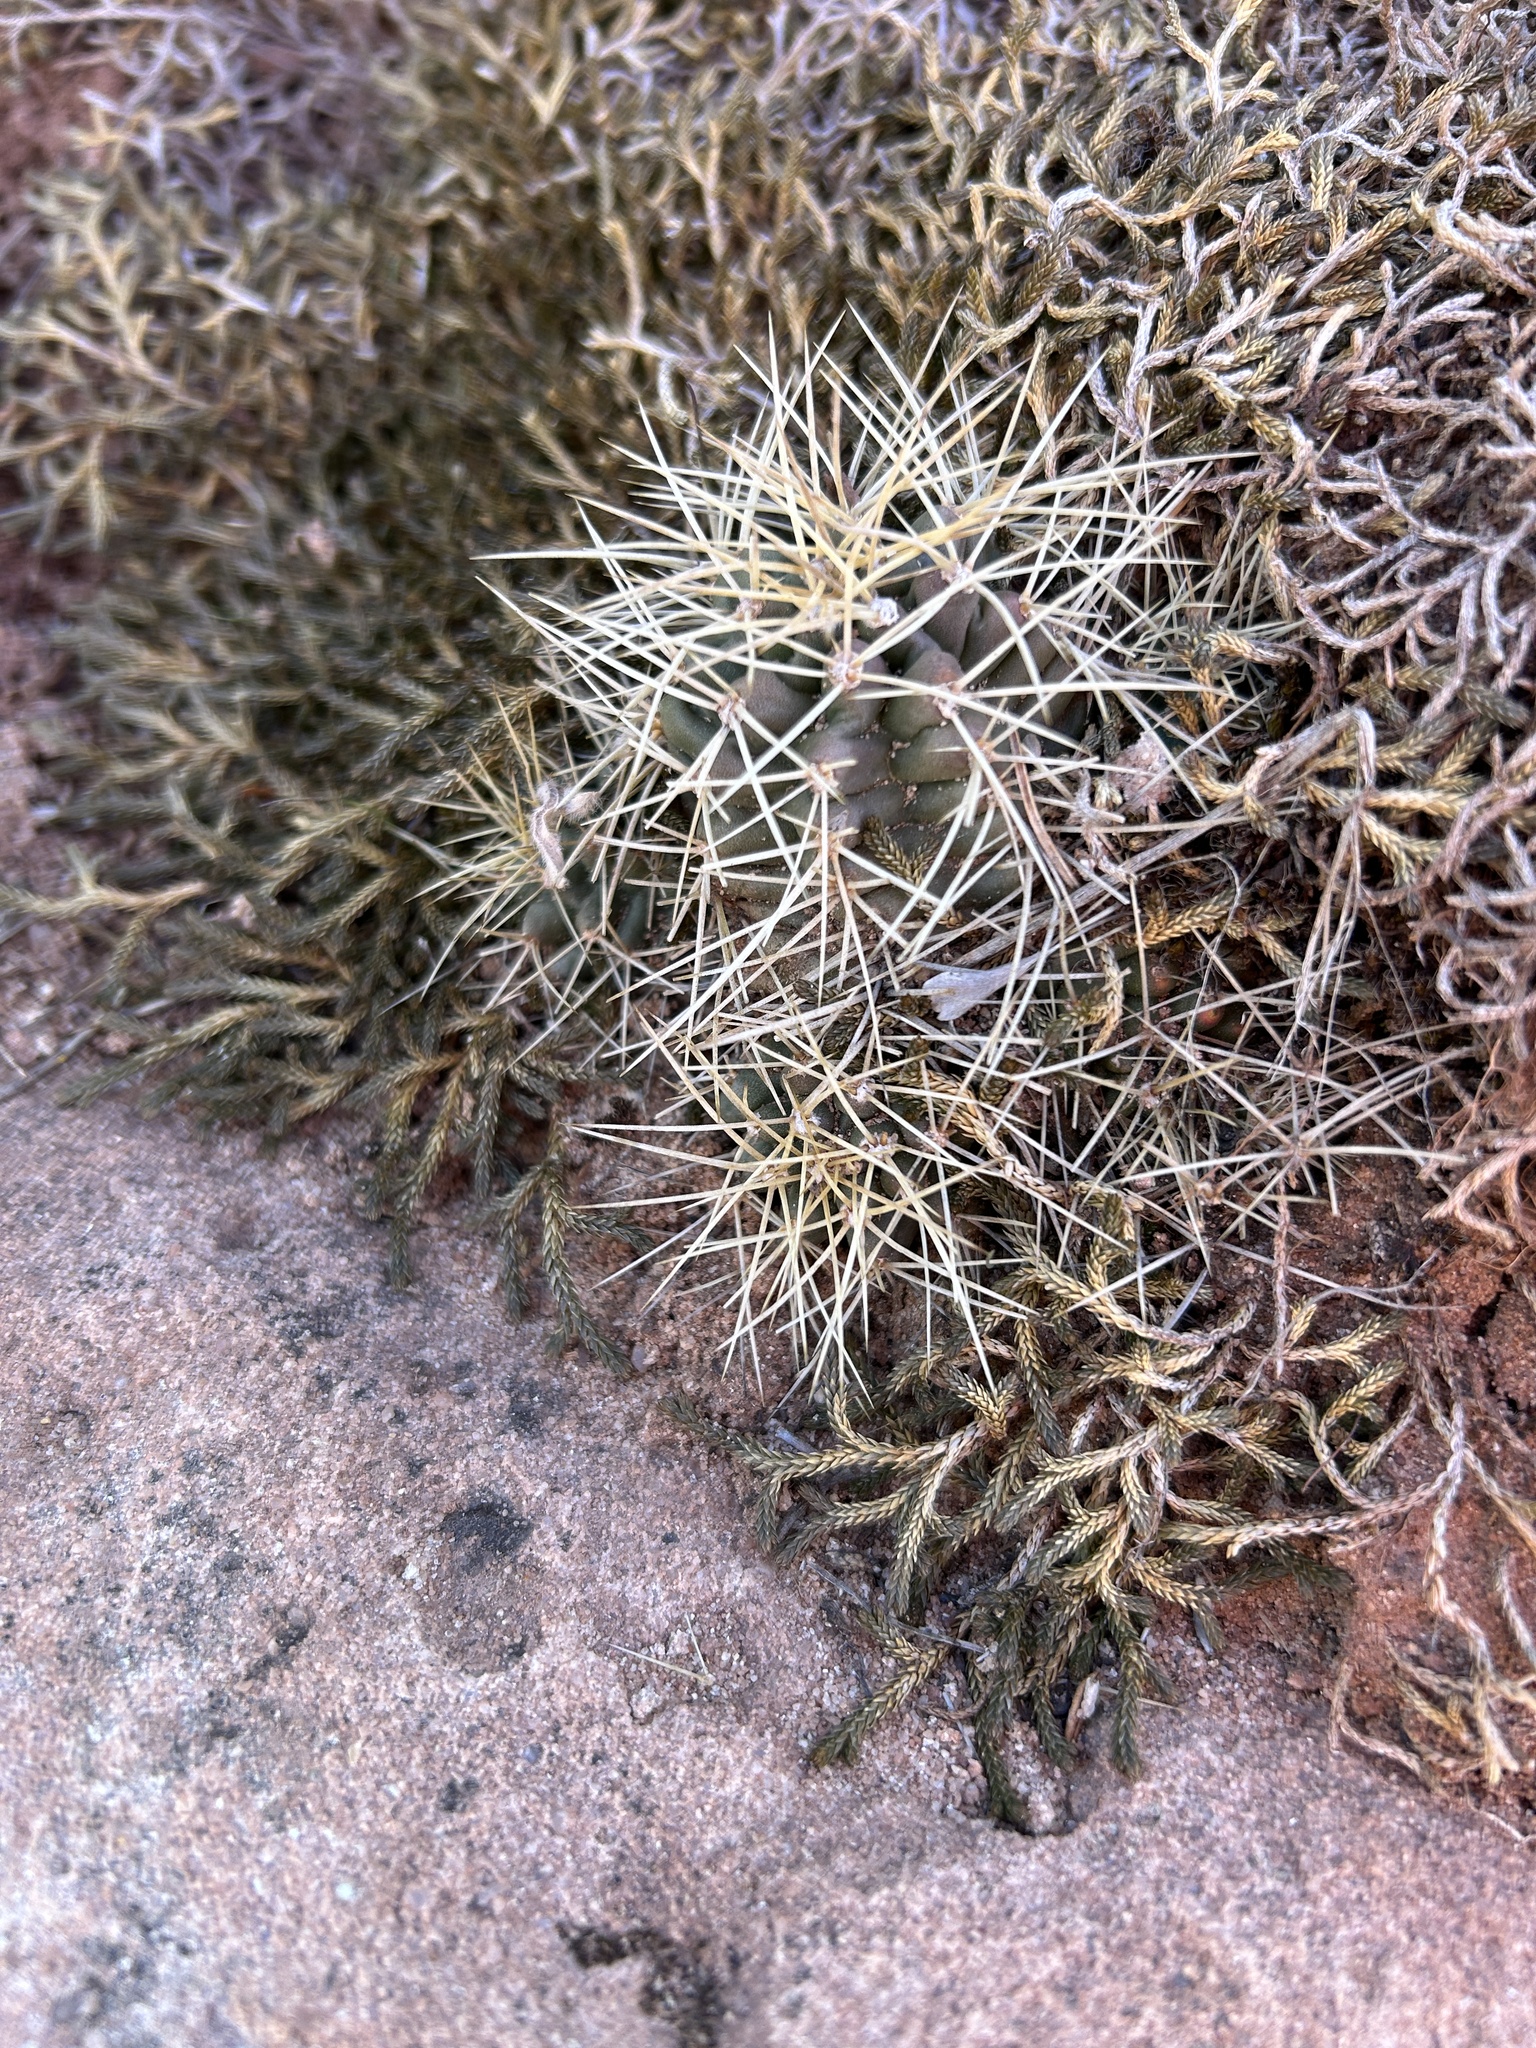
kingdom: Plantae
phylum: Tracheophyta
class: Magnoliopsida
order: Caryophyllales
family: Cactaceae
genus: Echinocereus
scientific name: Echinocereus triglochidiatus
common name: Claretcup hedgehog
